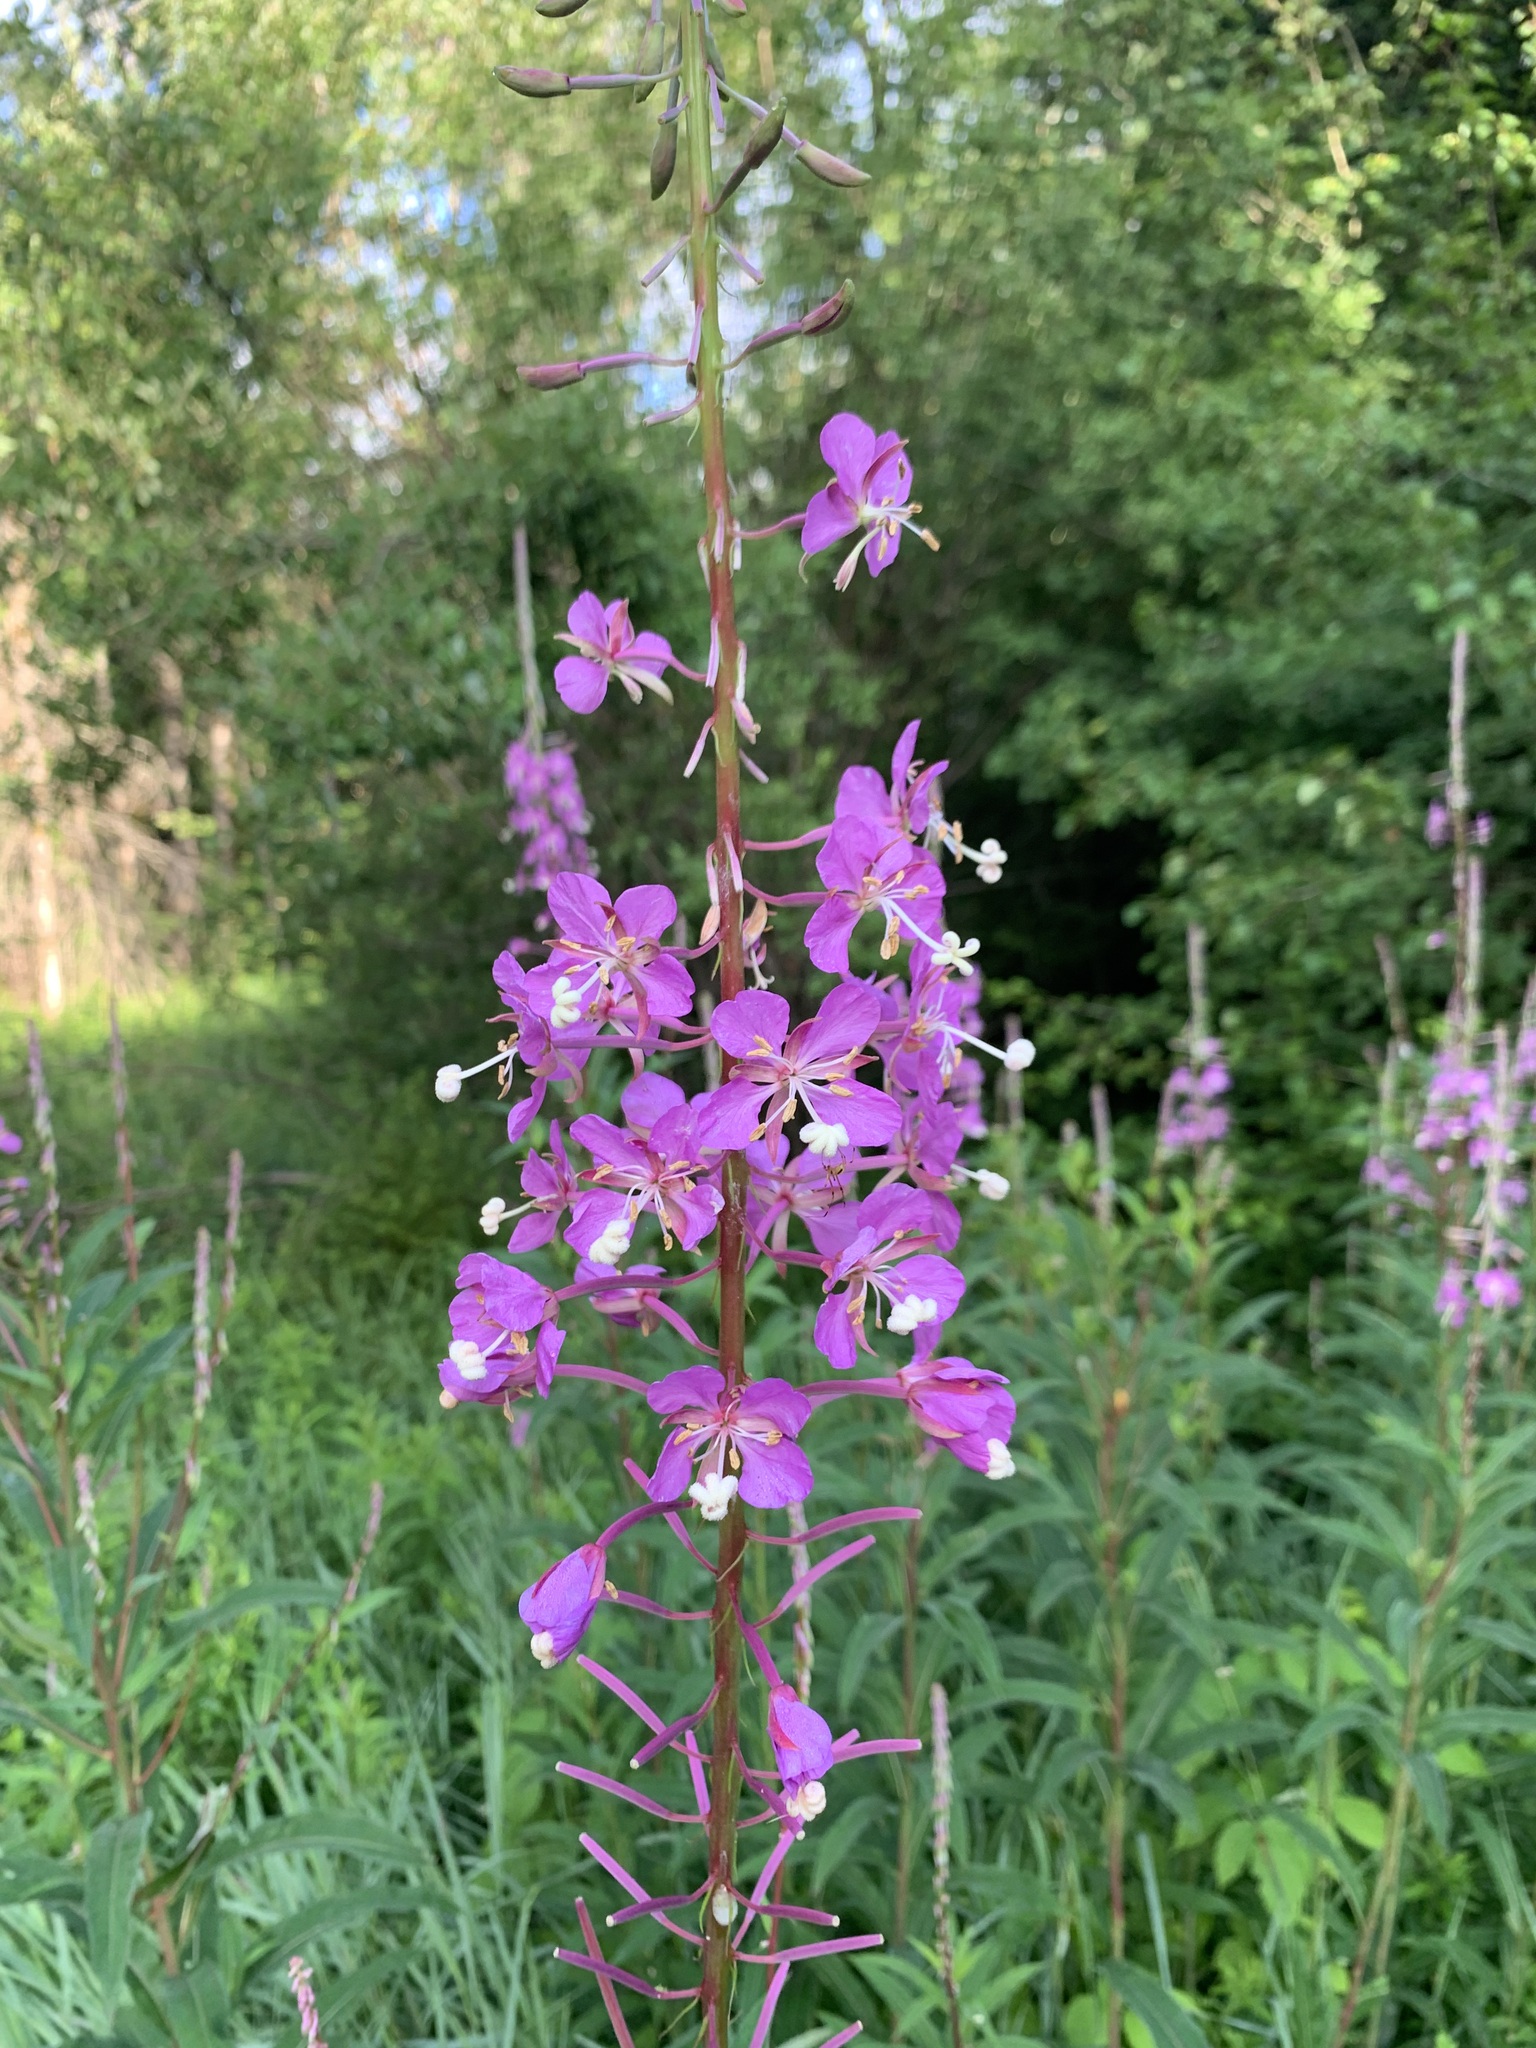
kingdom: Plantae
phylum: Tracheophyta
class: Magnoliopsida
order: Myrtales
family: Onagraceae
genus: Chamaenerion
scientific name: Chamaenerion angustifolium
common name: Fireweed
